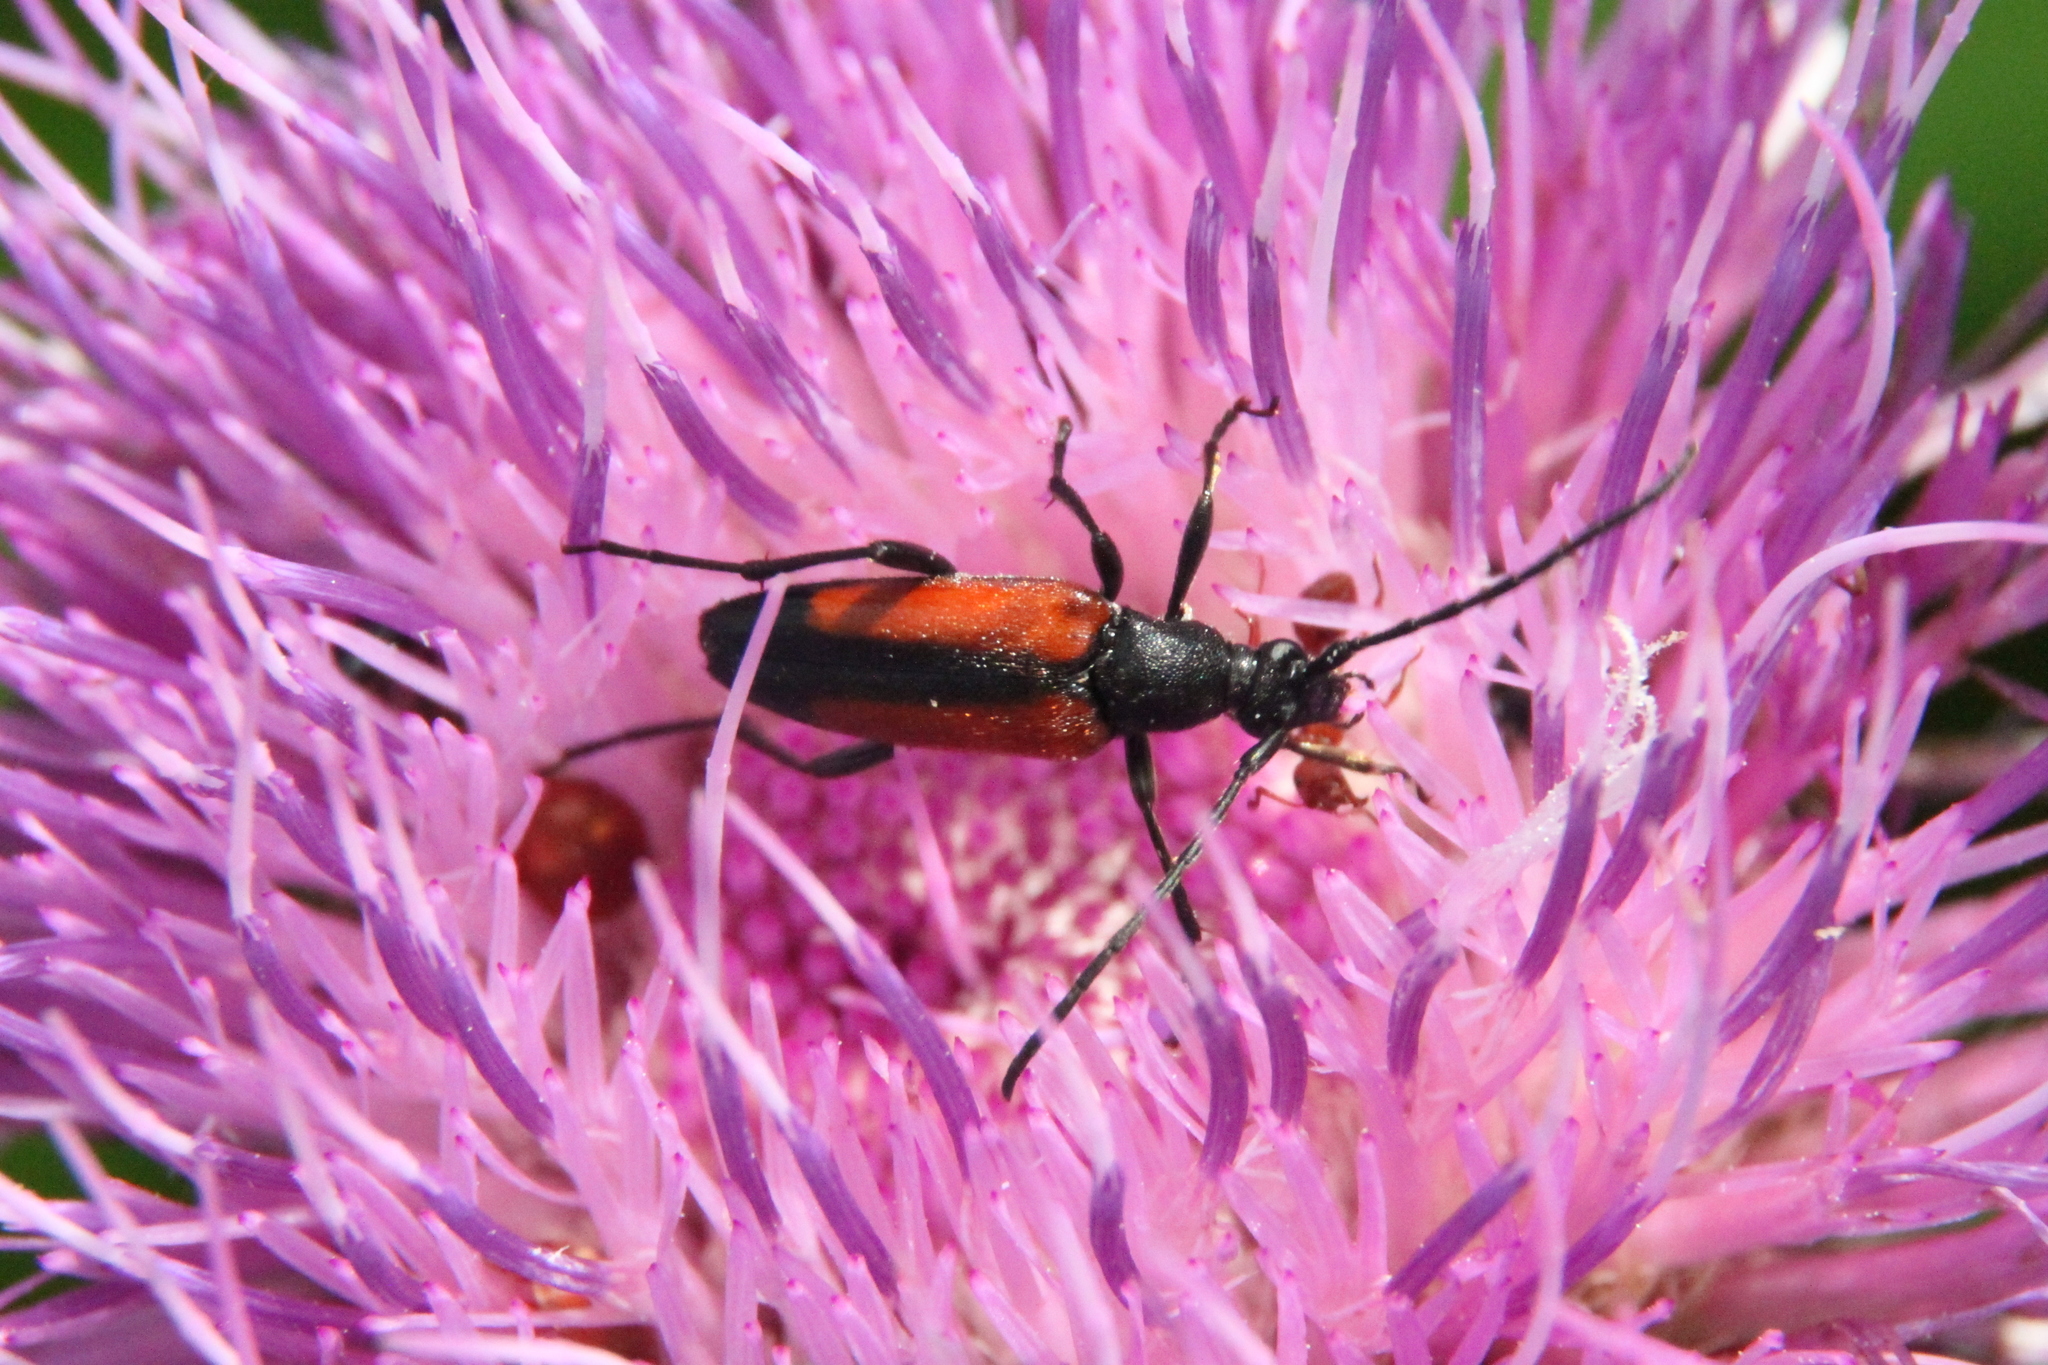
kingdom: Animalia
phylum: Arthropoda
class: Insecta
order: Coleoptera
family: Cerambycidae
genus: Stenurella
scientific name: Stenurella melanura
